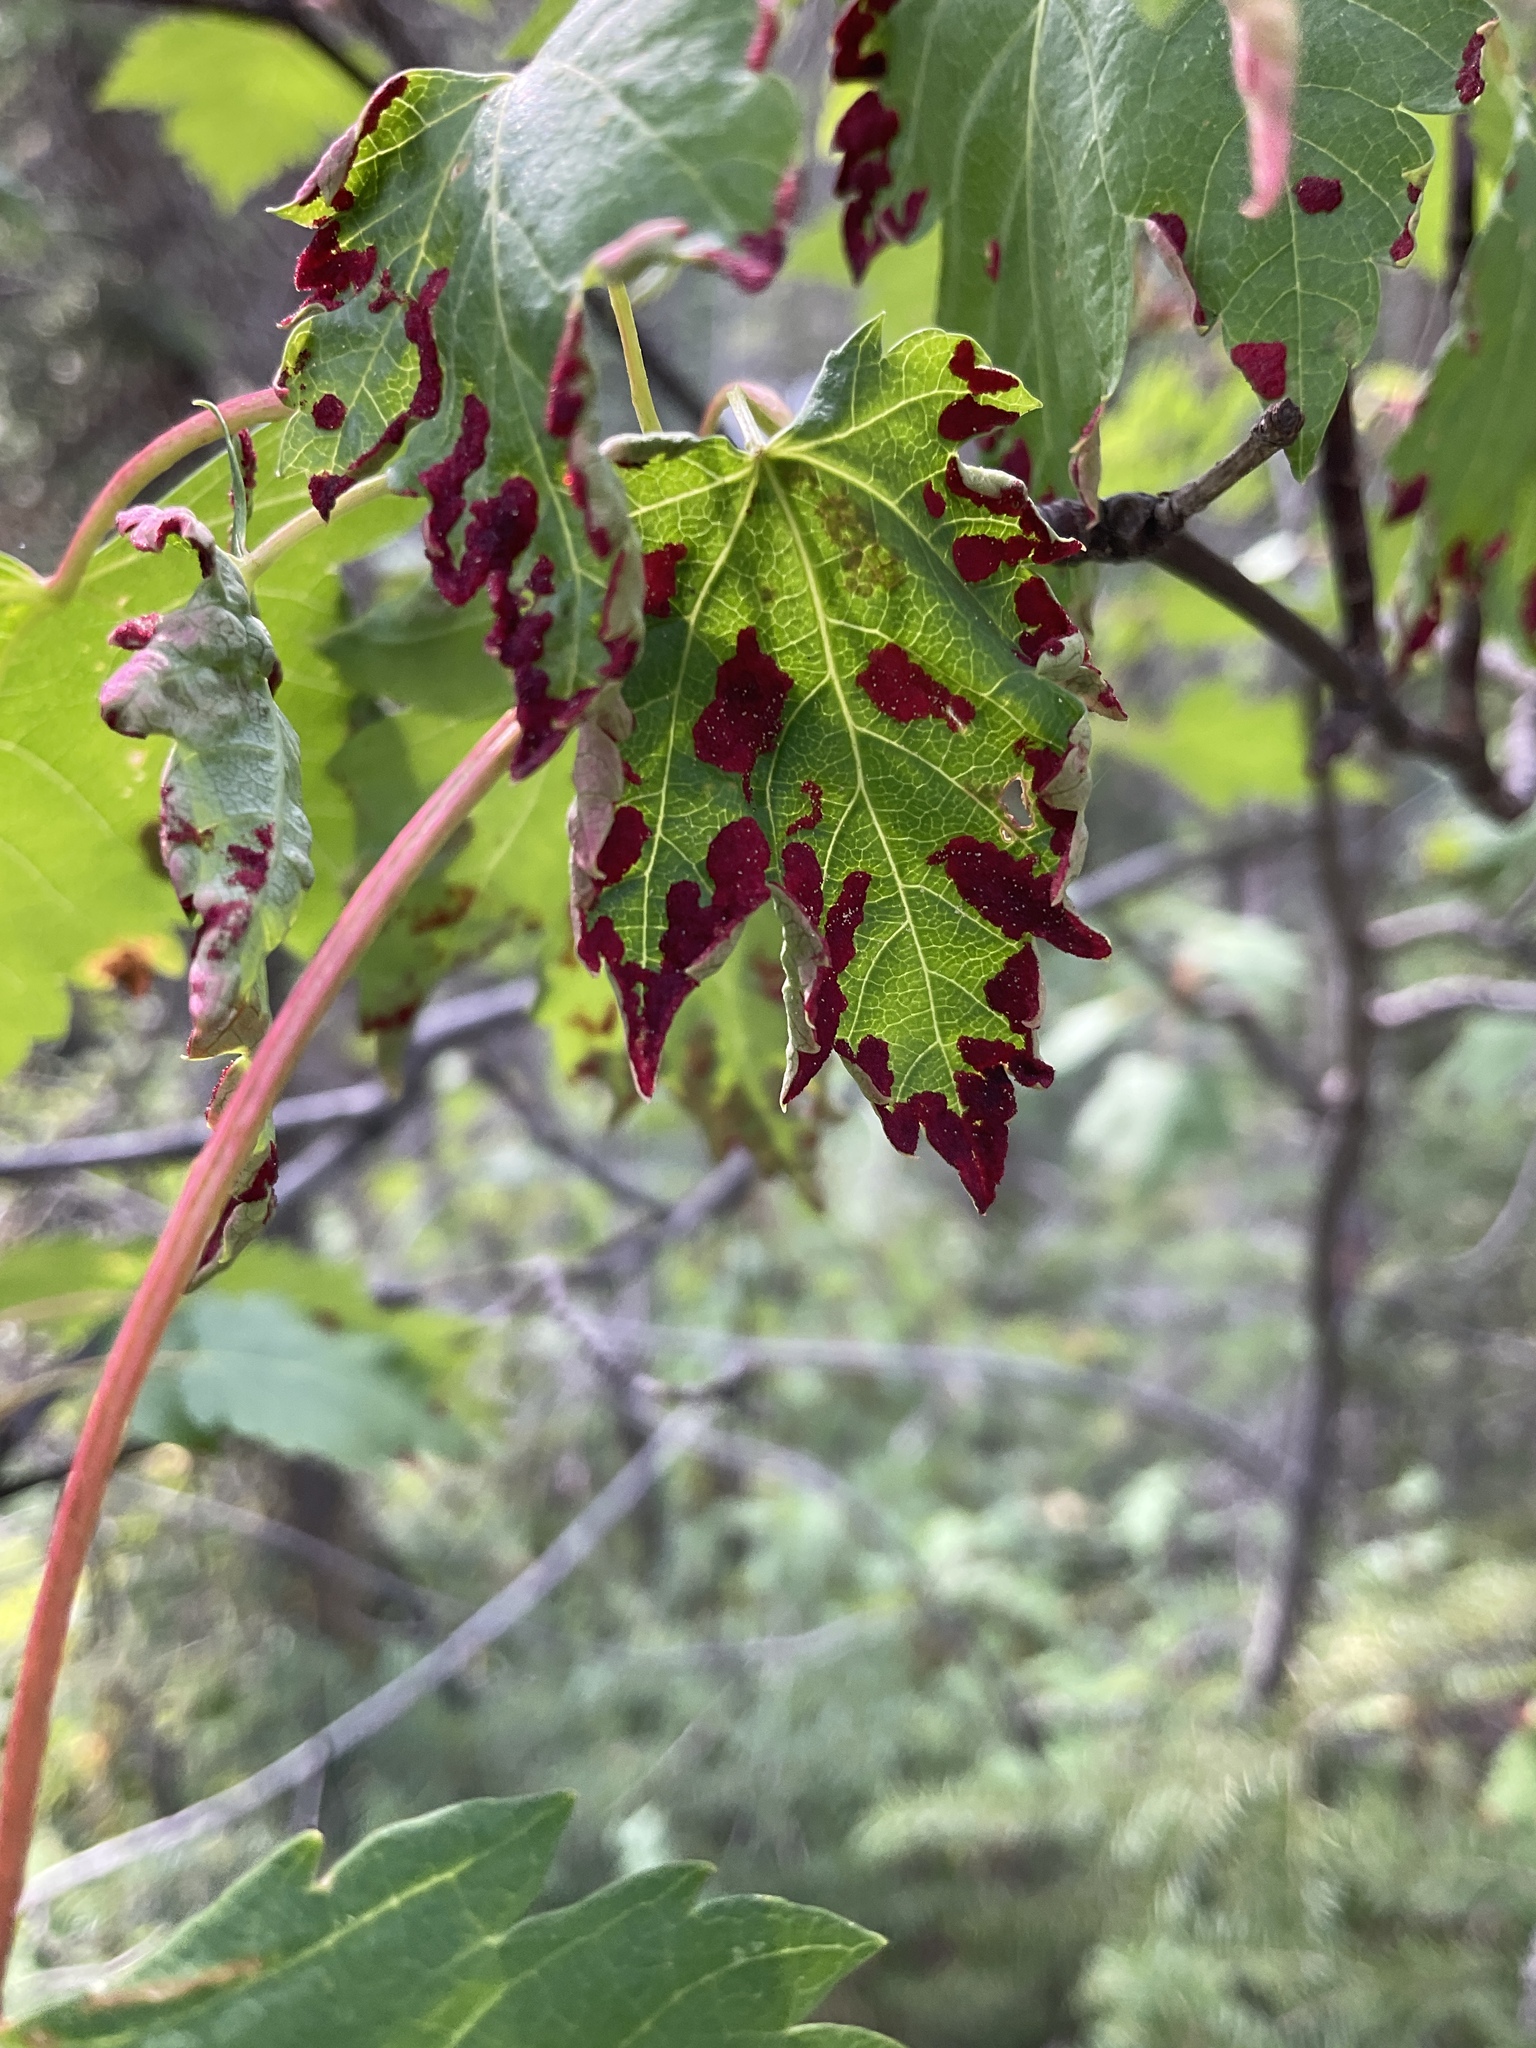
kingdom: Animalia
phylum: Arthropoda
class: Arachnida
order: Trombidiformes
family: Eriophyidae
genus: Aceria
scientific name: Aceria
